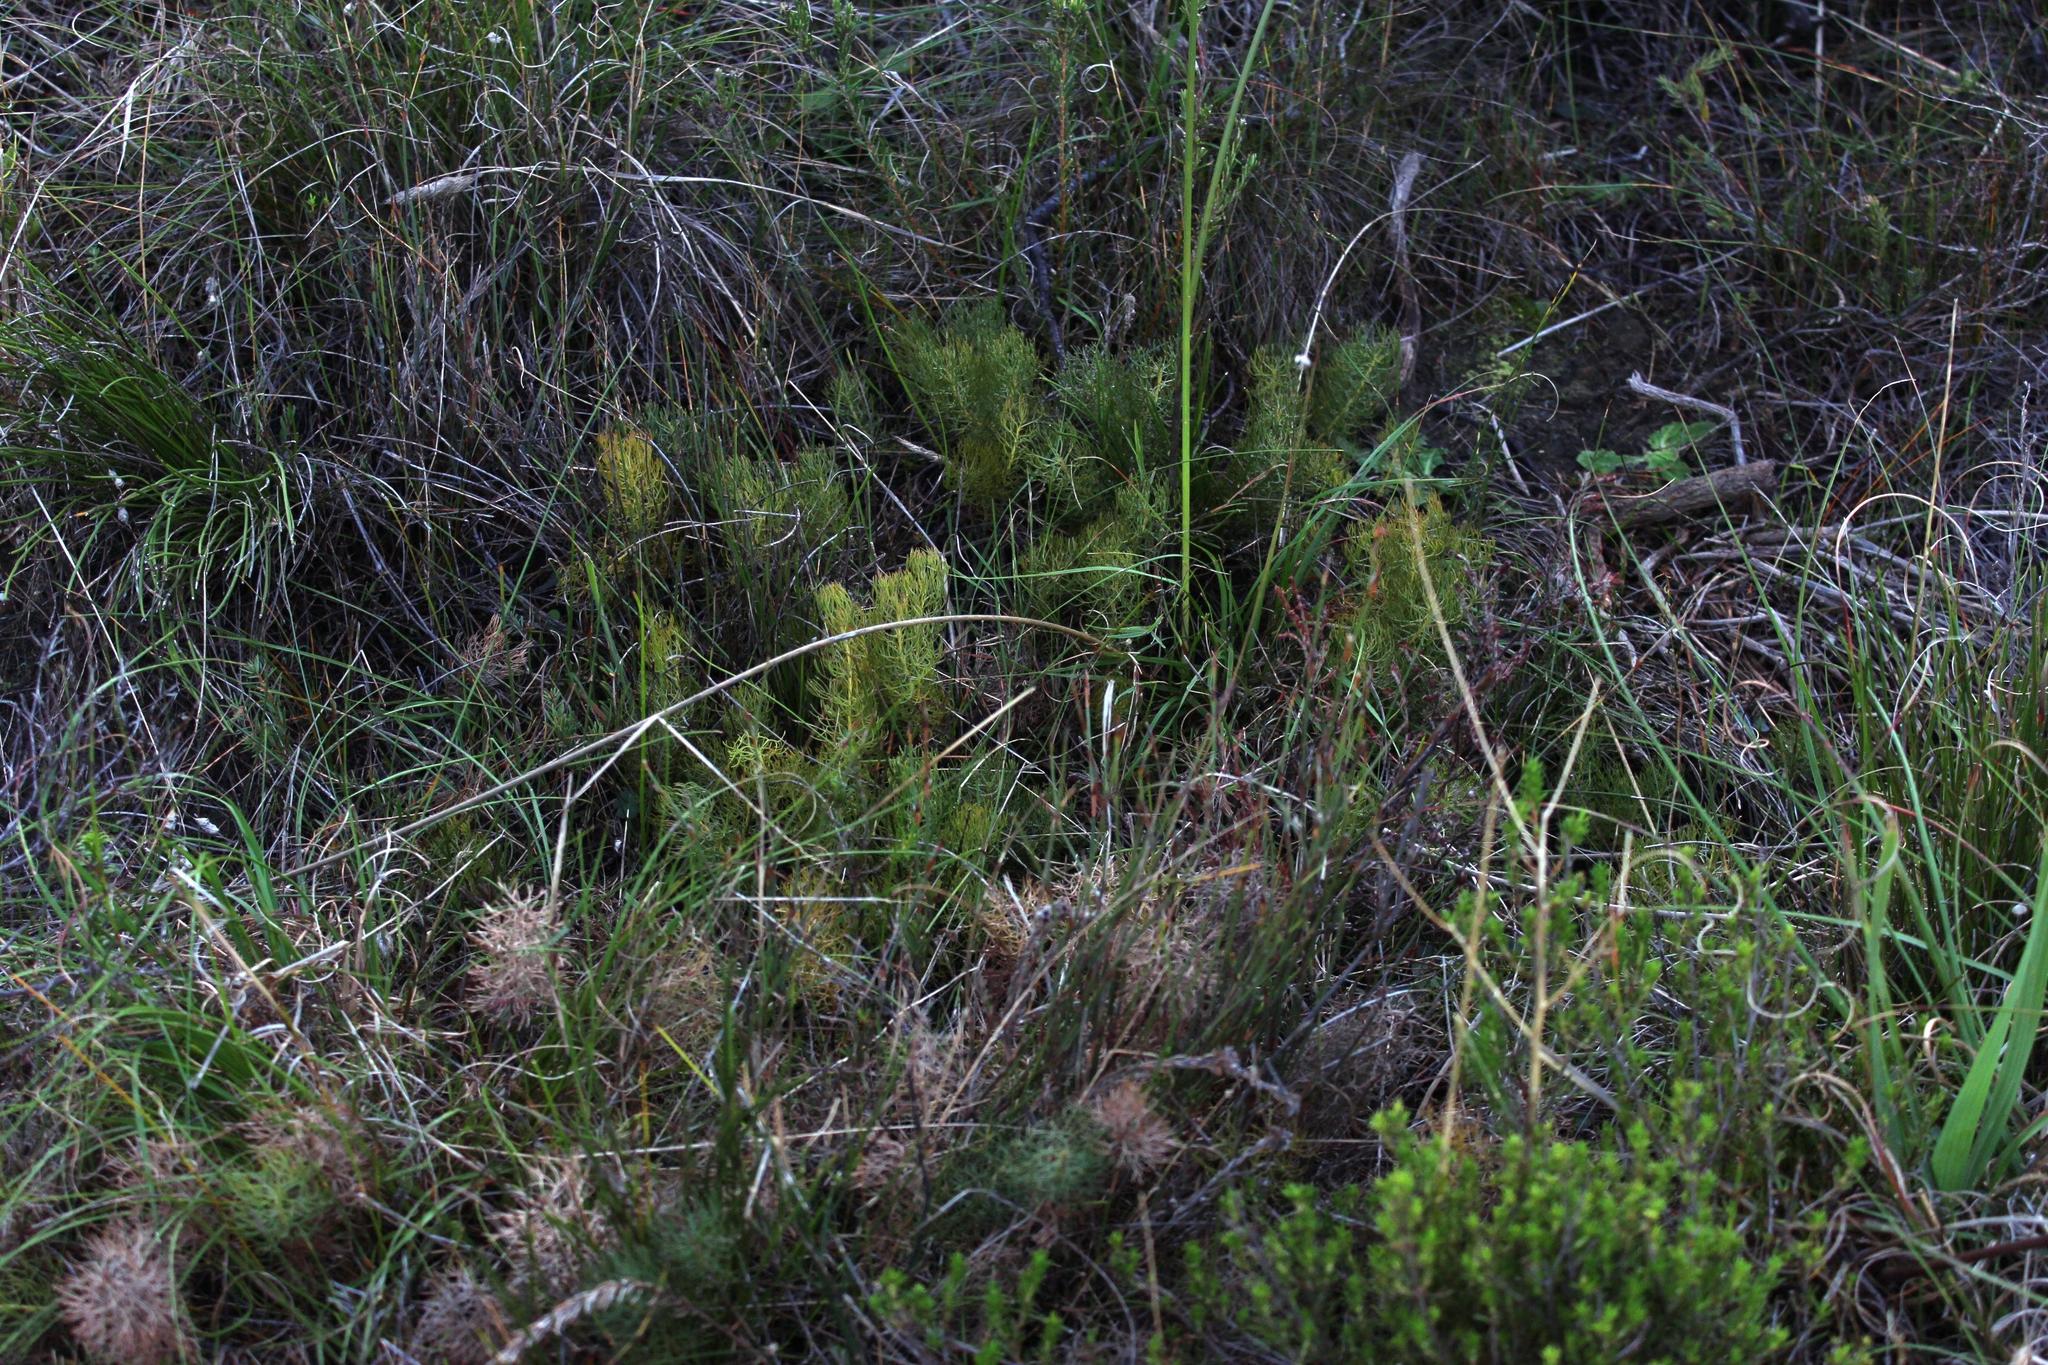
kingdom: Plantae
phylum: Tracheophyta
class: Magnoliopsida
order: Proteales
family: Proteaceae
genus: Serruria
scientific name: Serruria cyanoides
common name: Wynberg spiderhead
